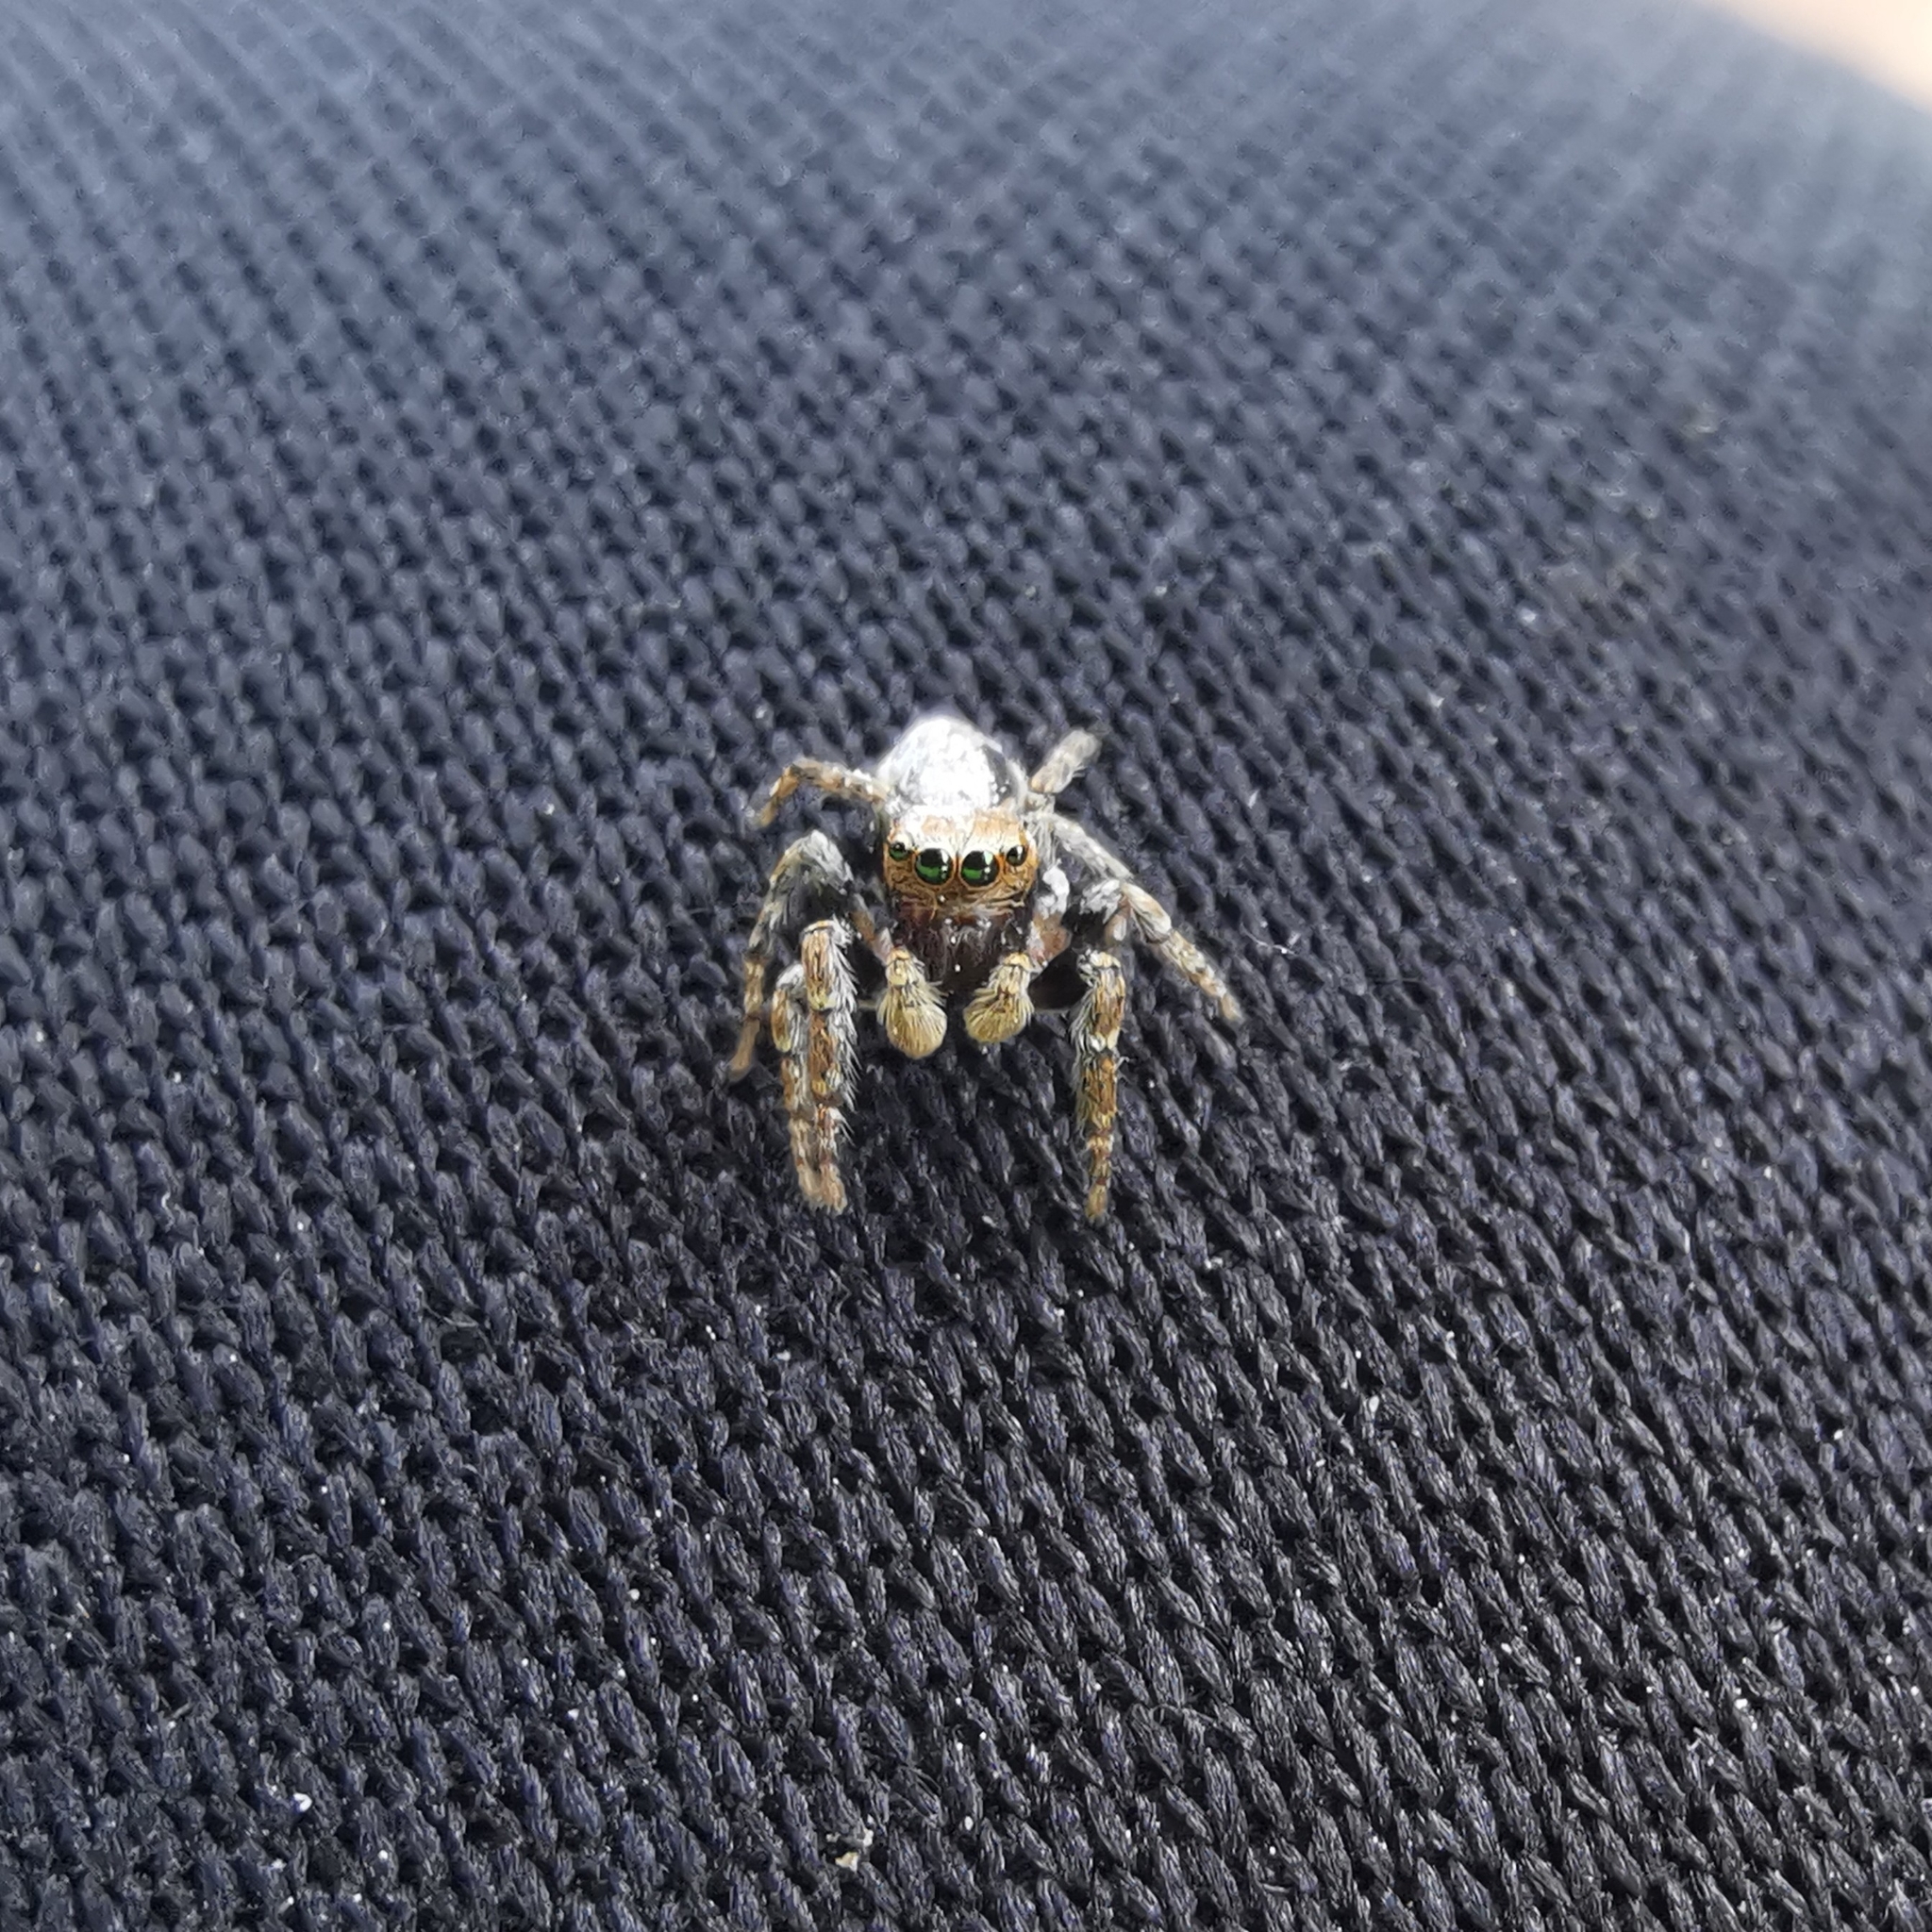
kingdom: Animalia
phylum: Arthropoda
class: Arachnida
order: Araneae
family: Salticidae
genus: Evarcha
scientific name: Evarcha falcata
